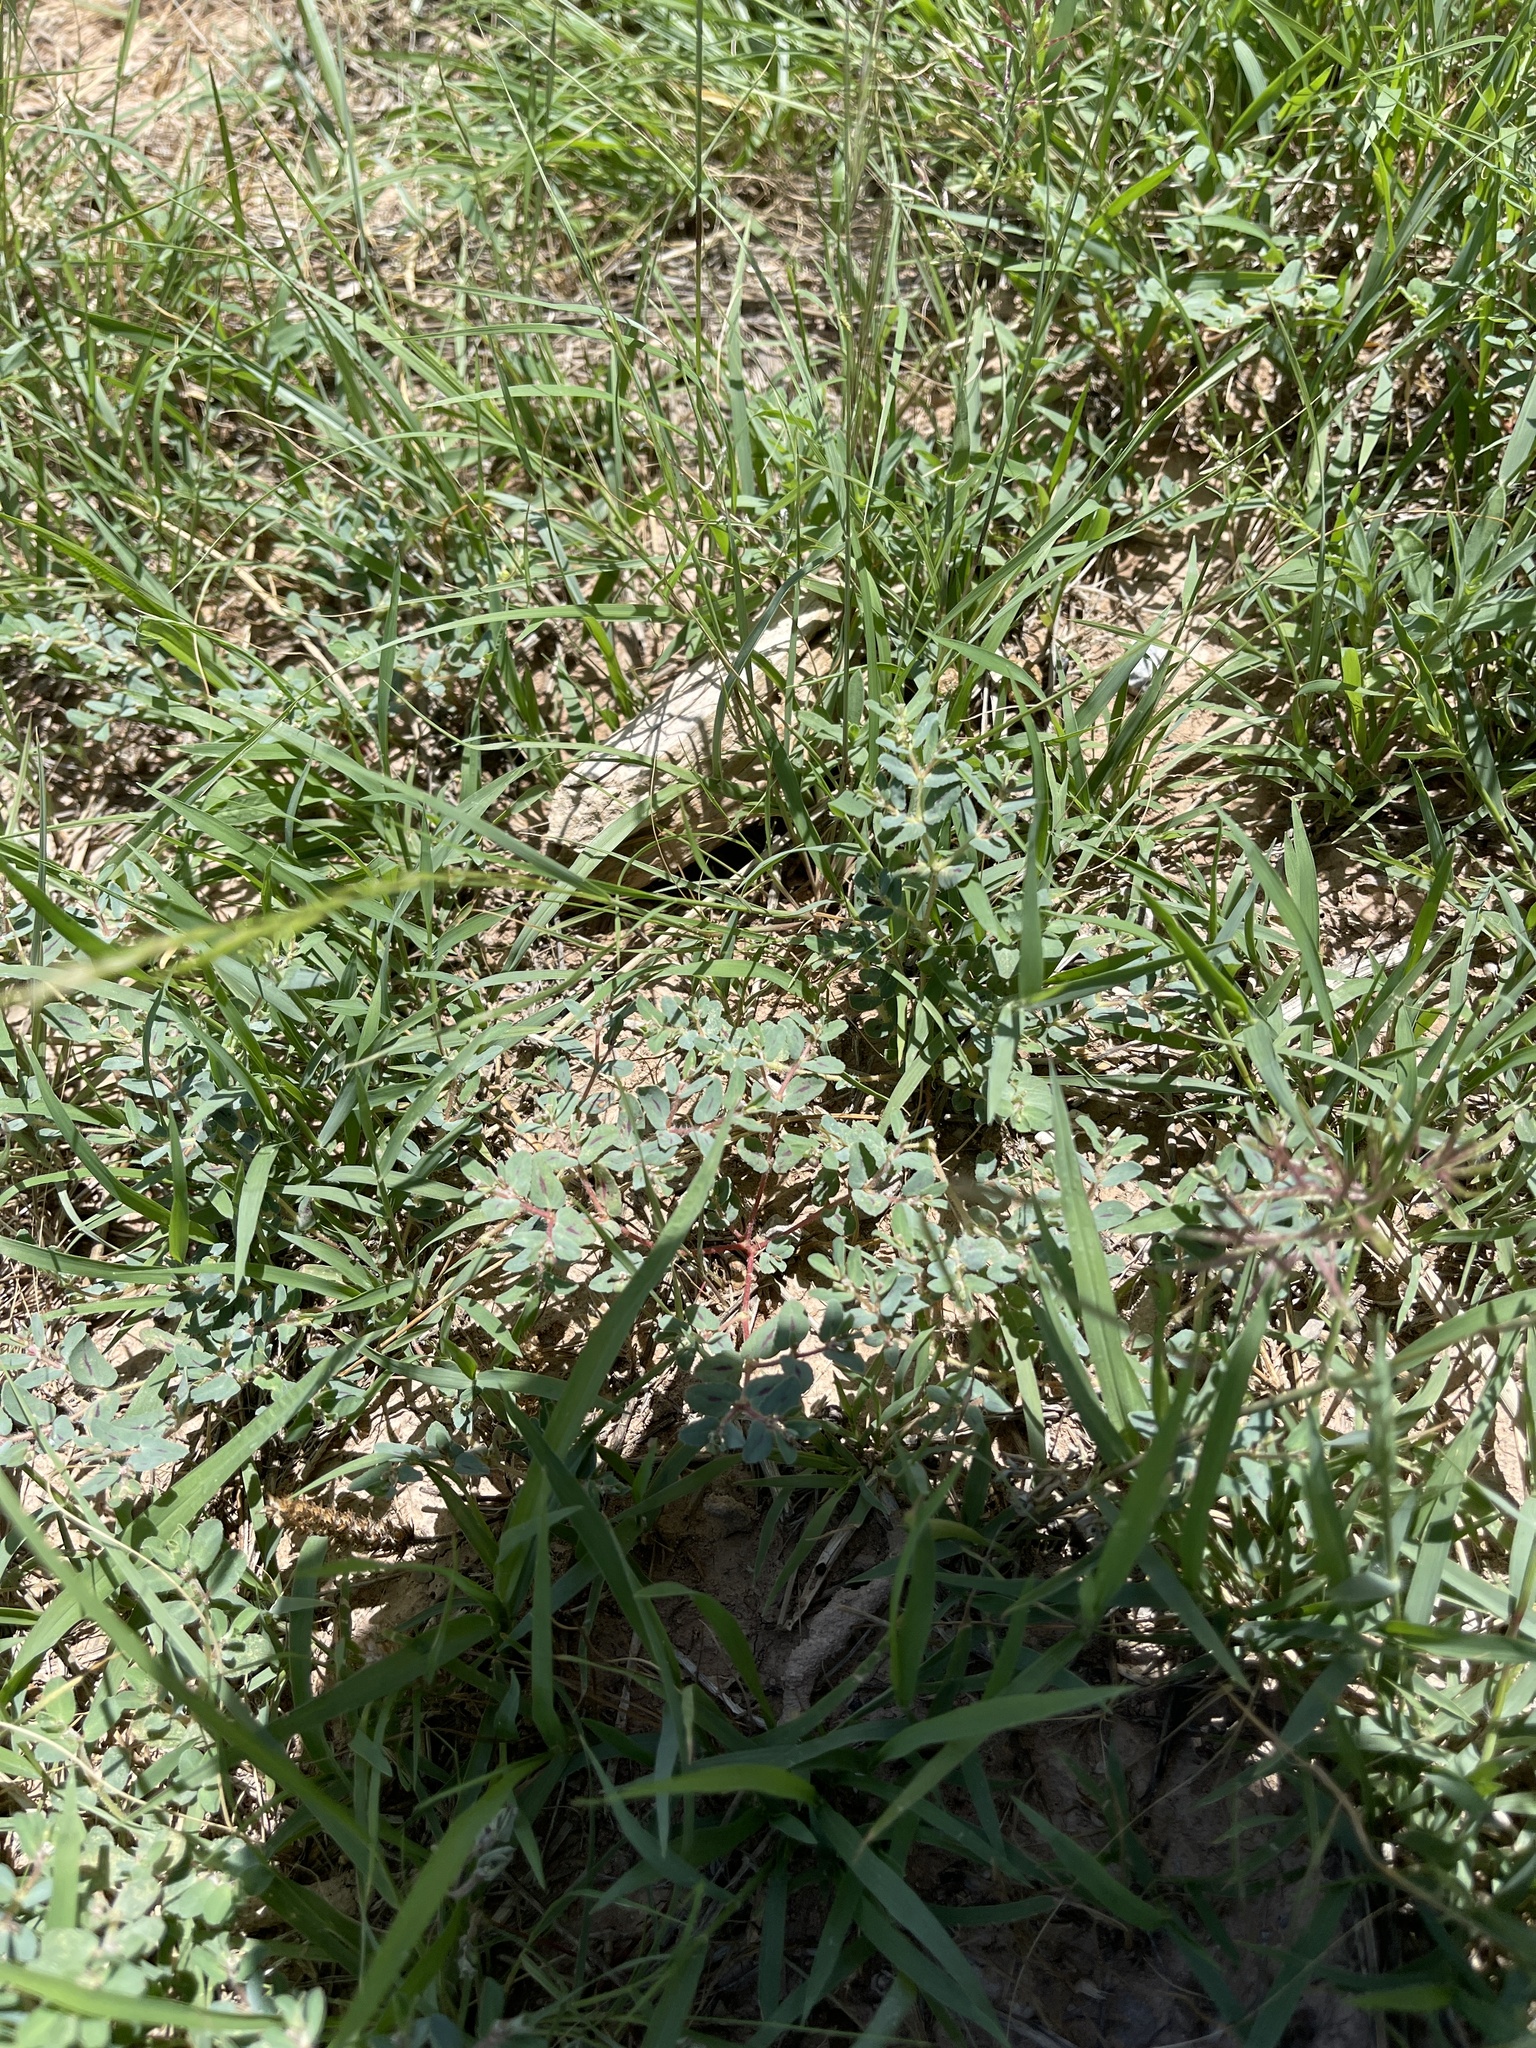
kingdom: Plantae
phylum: Tracheophyta
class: Magnoliopsida
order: Malpighiales
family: Euphorbiaceae
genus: Euphorbia
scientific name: Euphorbia serrula
